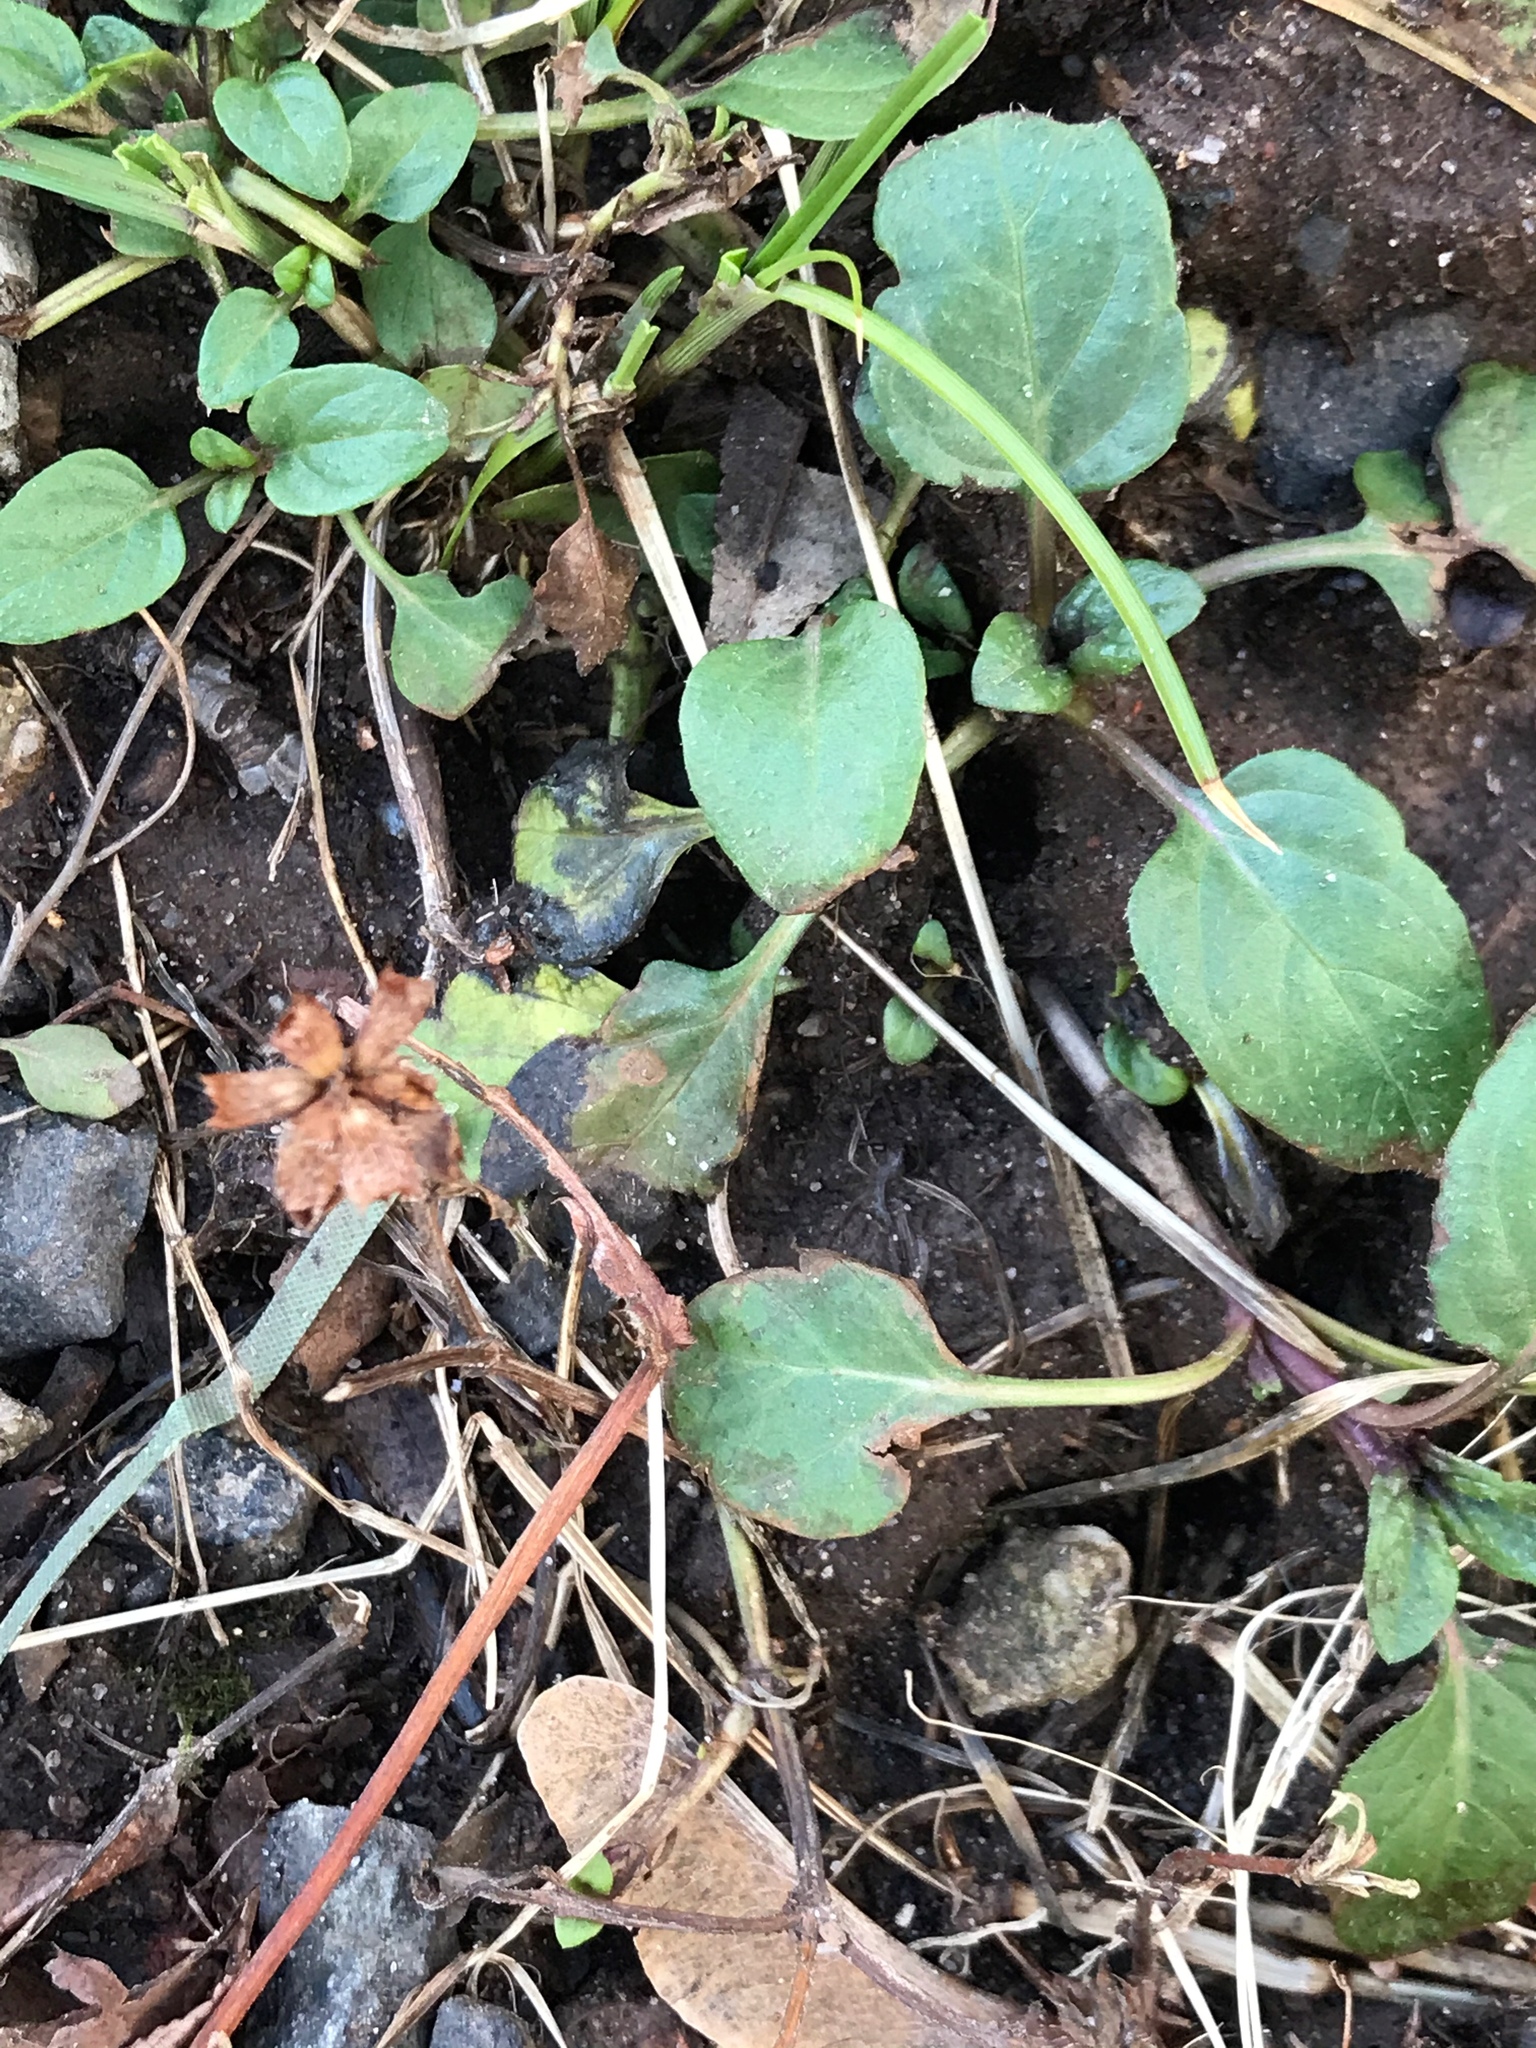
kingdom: Plantae
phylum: Tracheophyta
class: Magnoliopsida
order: Lamiales
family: Lamiaceae
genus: Prunella
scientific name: Prunella vulgaris
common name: Heal-all
